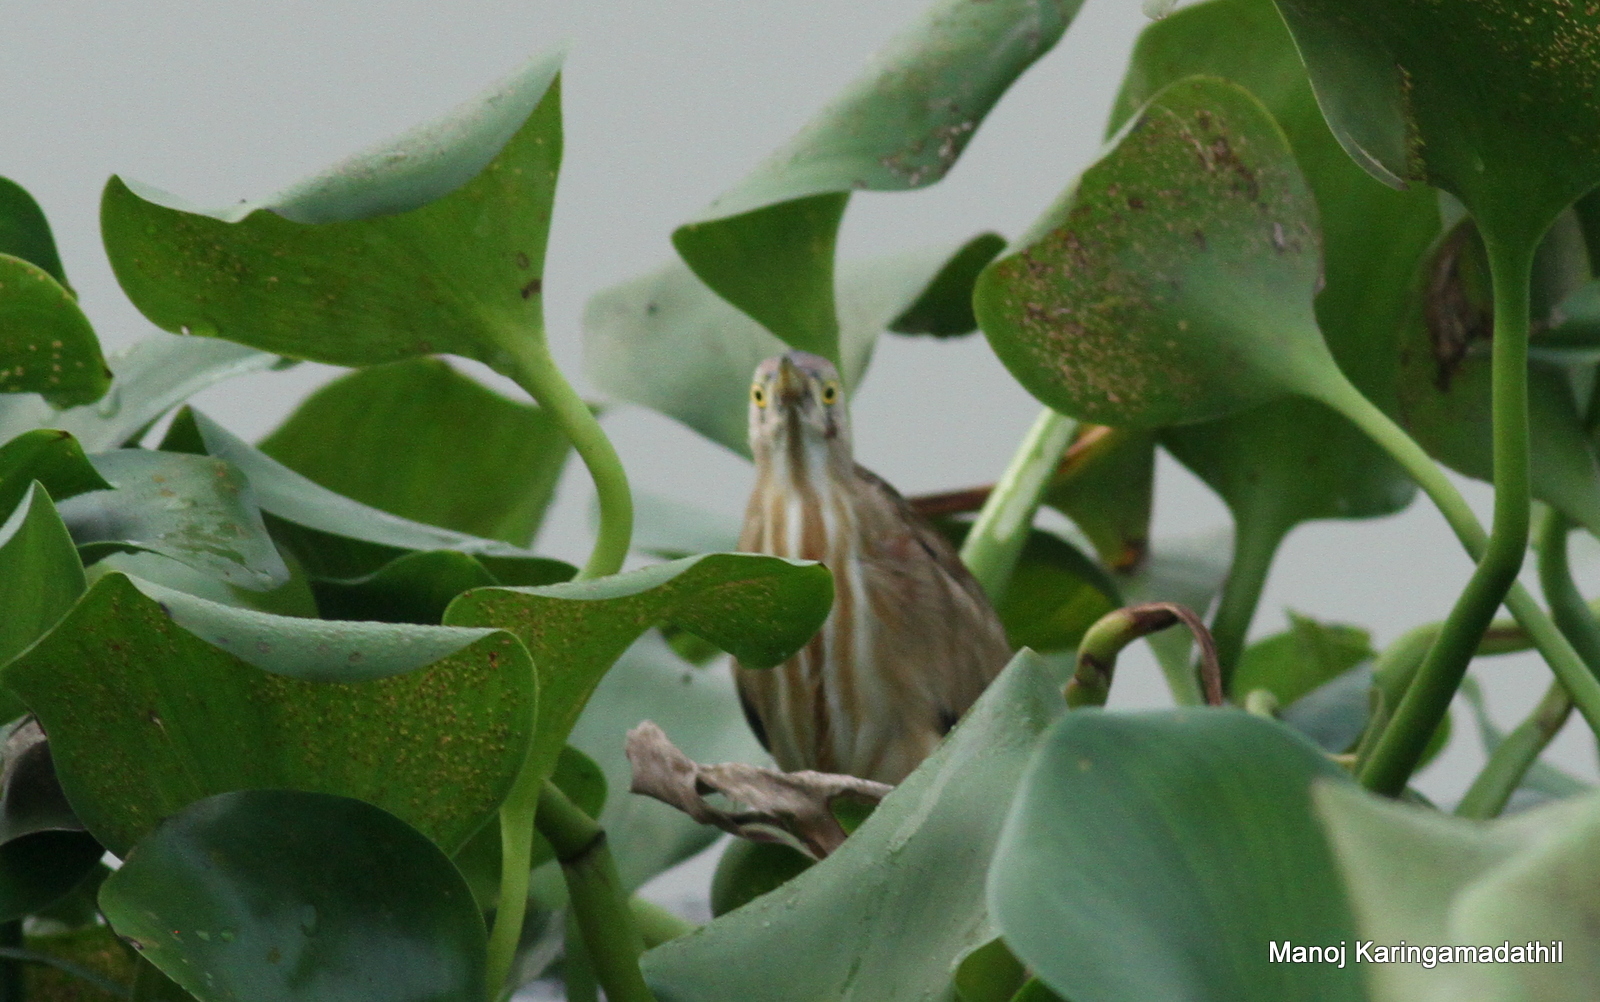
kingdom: Animalia
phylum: Chordata
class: Aves
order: Pelecaniformes
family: Ardeidae
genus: Ixobrychus
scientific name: Ixobrychus sinensis
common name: Yellow bittern
